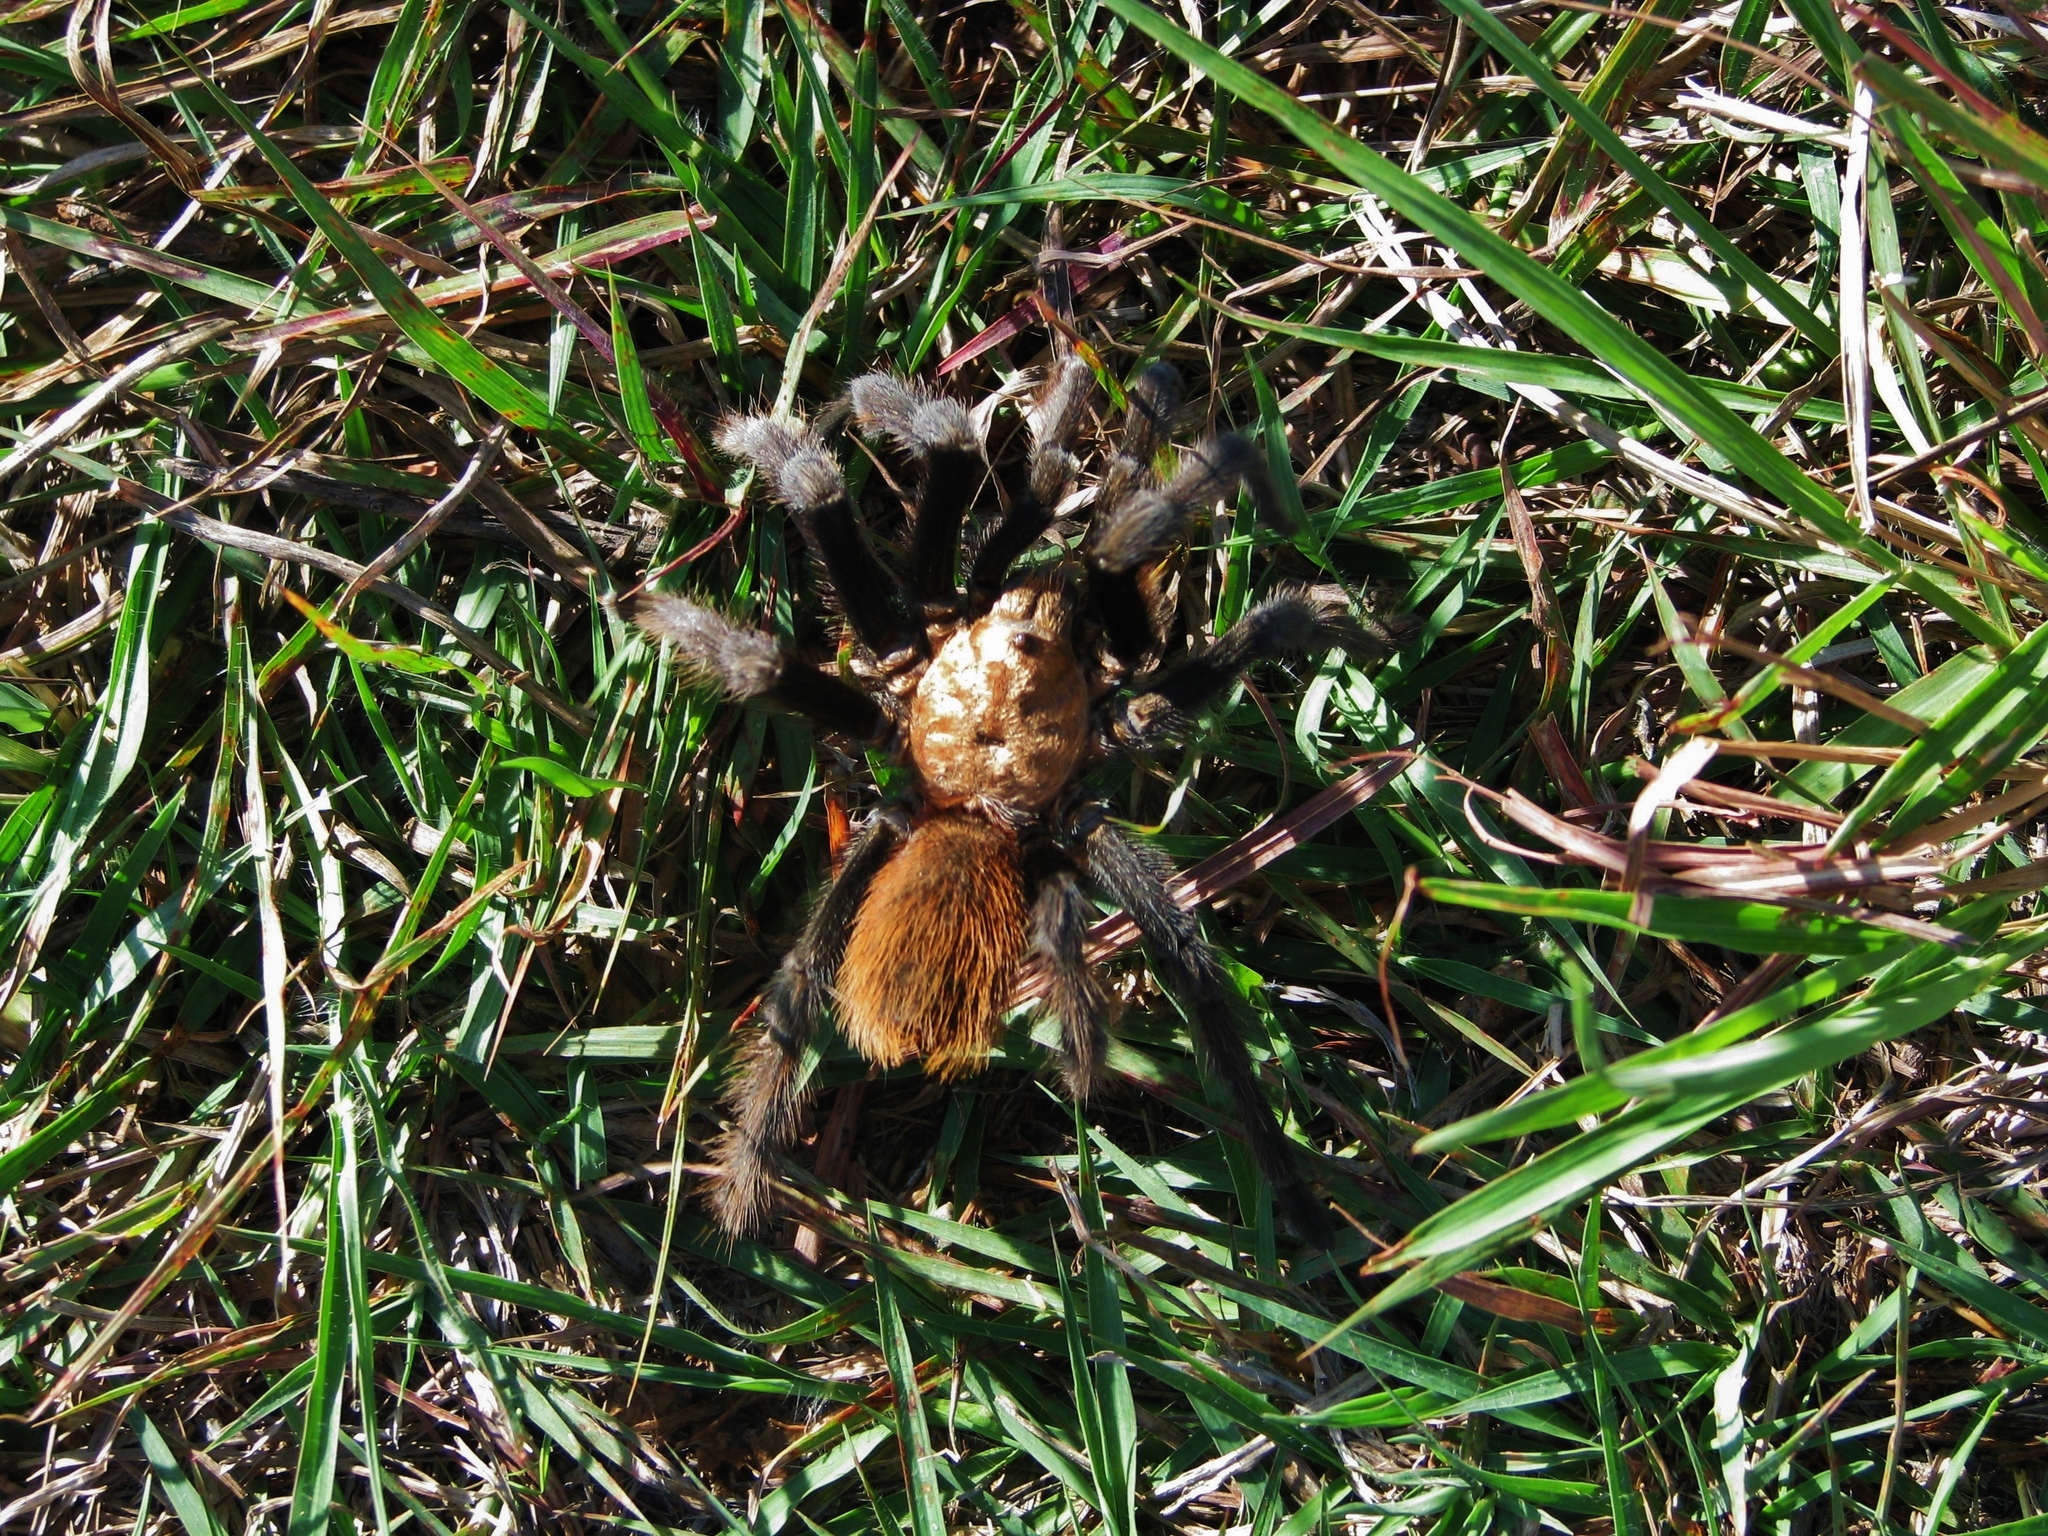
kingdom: Animalia
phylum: Arthropoda
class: Arachnida
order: Araneae
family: Theraphosidae
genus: Aphonopelma
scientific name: Aphonopelma hentzi
